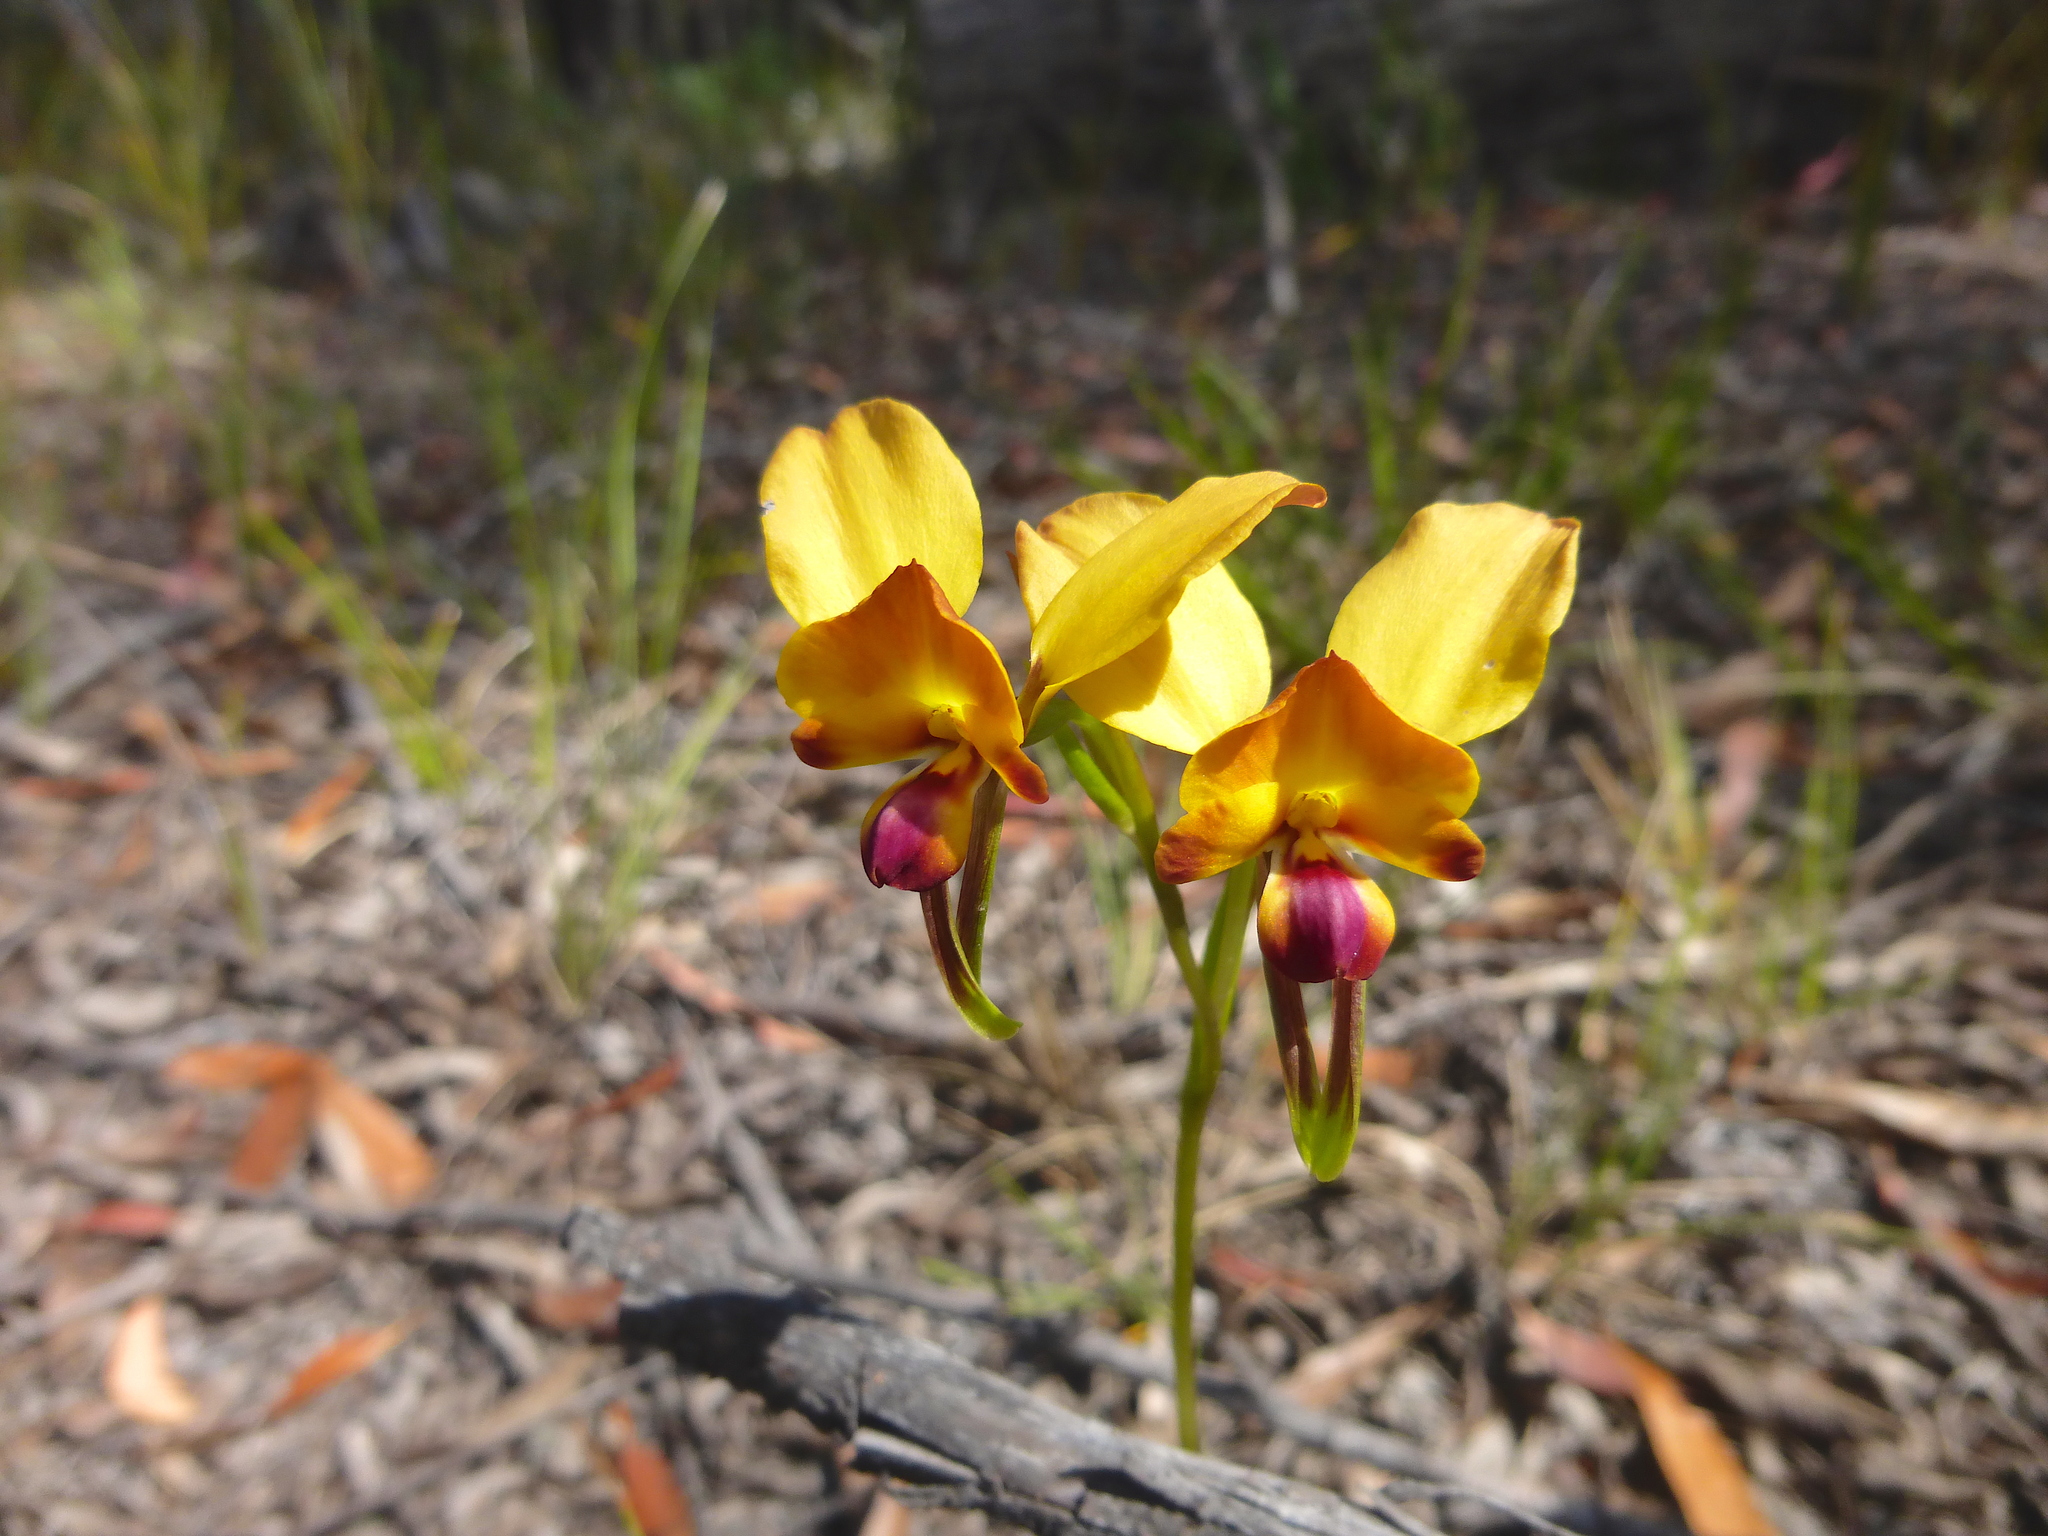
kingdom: Plantae
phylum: Tracheophyta
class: Liliopsida
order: Asparagales
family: Orchidaceae
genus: Diuris
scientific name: Diuris orientis
